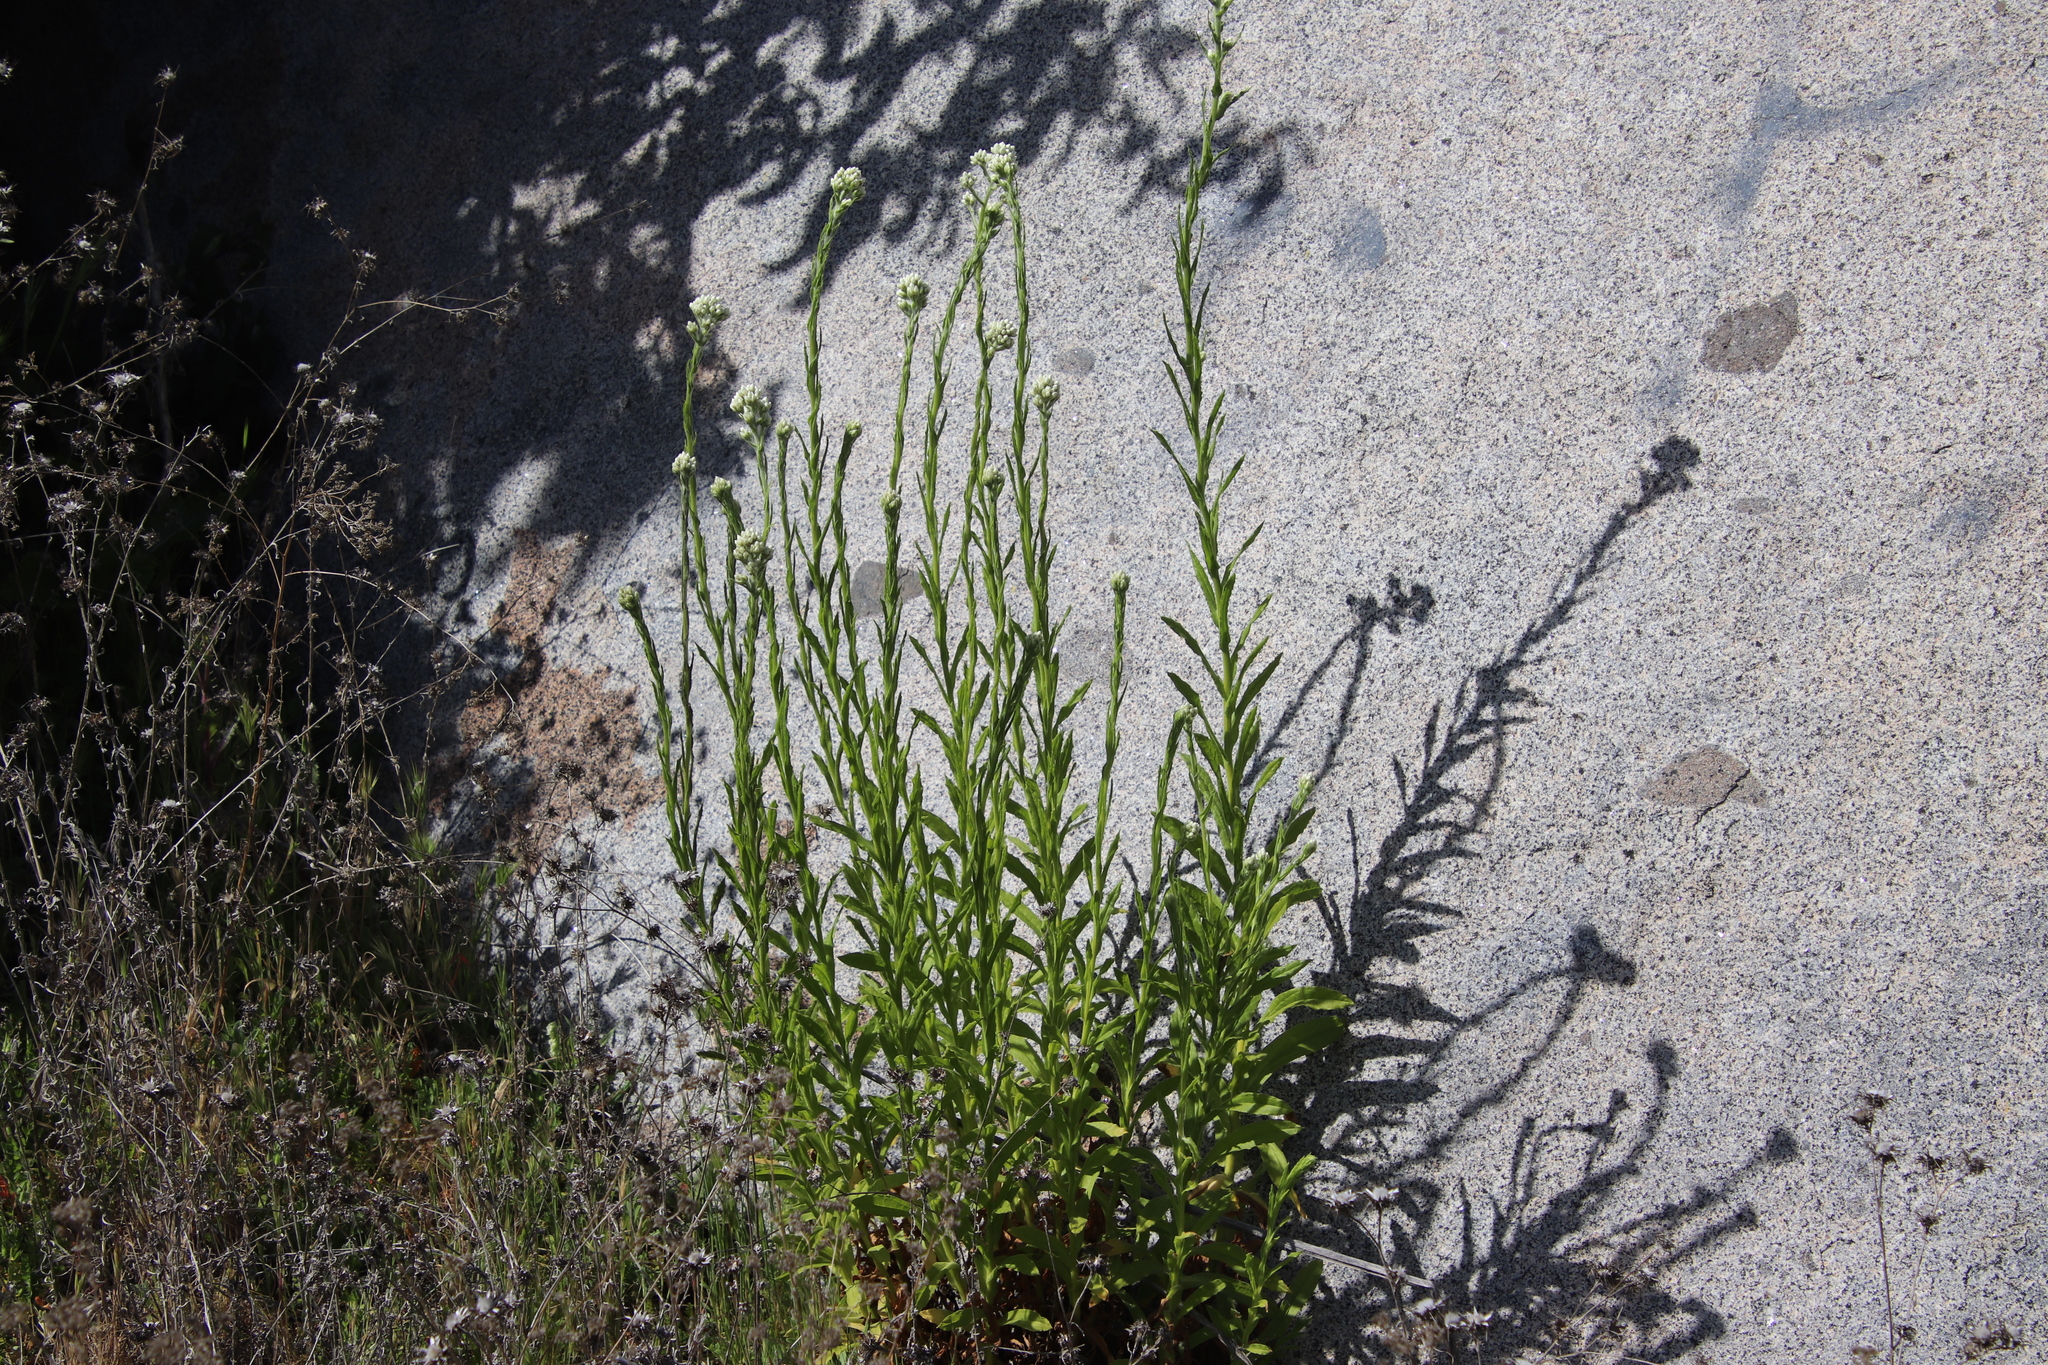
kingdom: Plantae
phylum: Tracheophyta
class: Magnoliopsida
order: Asterales
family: Asteraceae
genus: Pseudognaphalium
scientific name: Pseudognaphalium californicum
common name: California rabbit-tobacco
